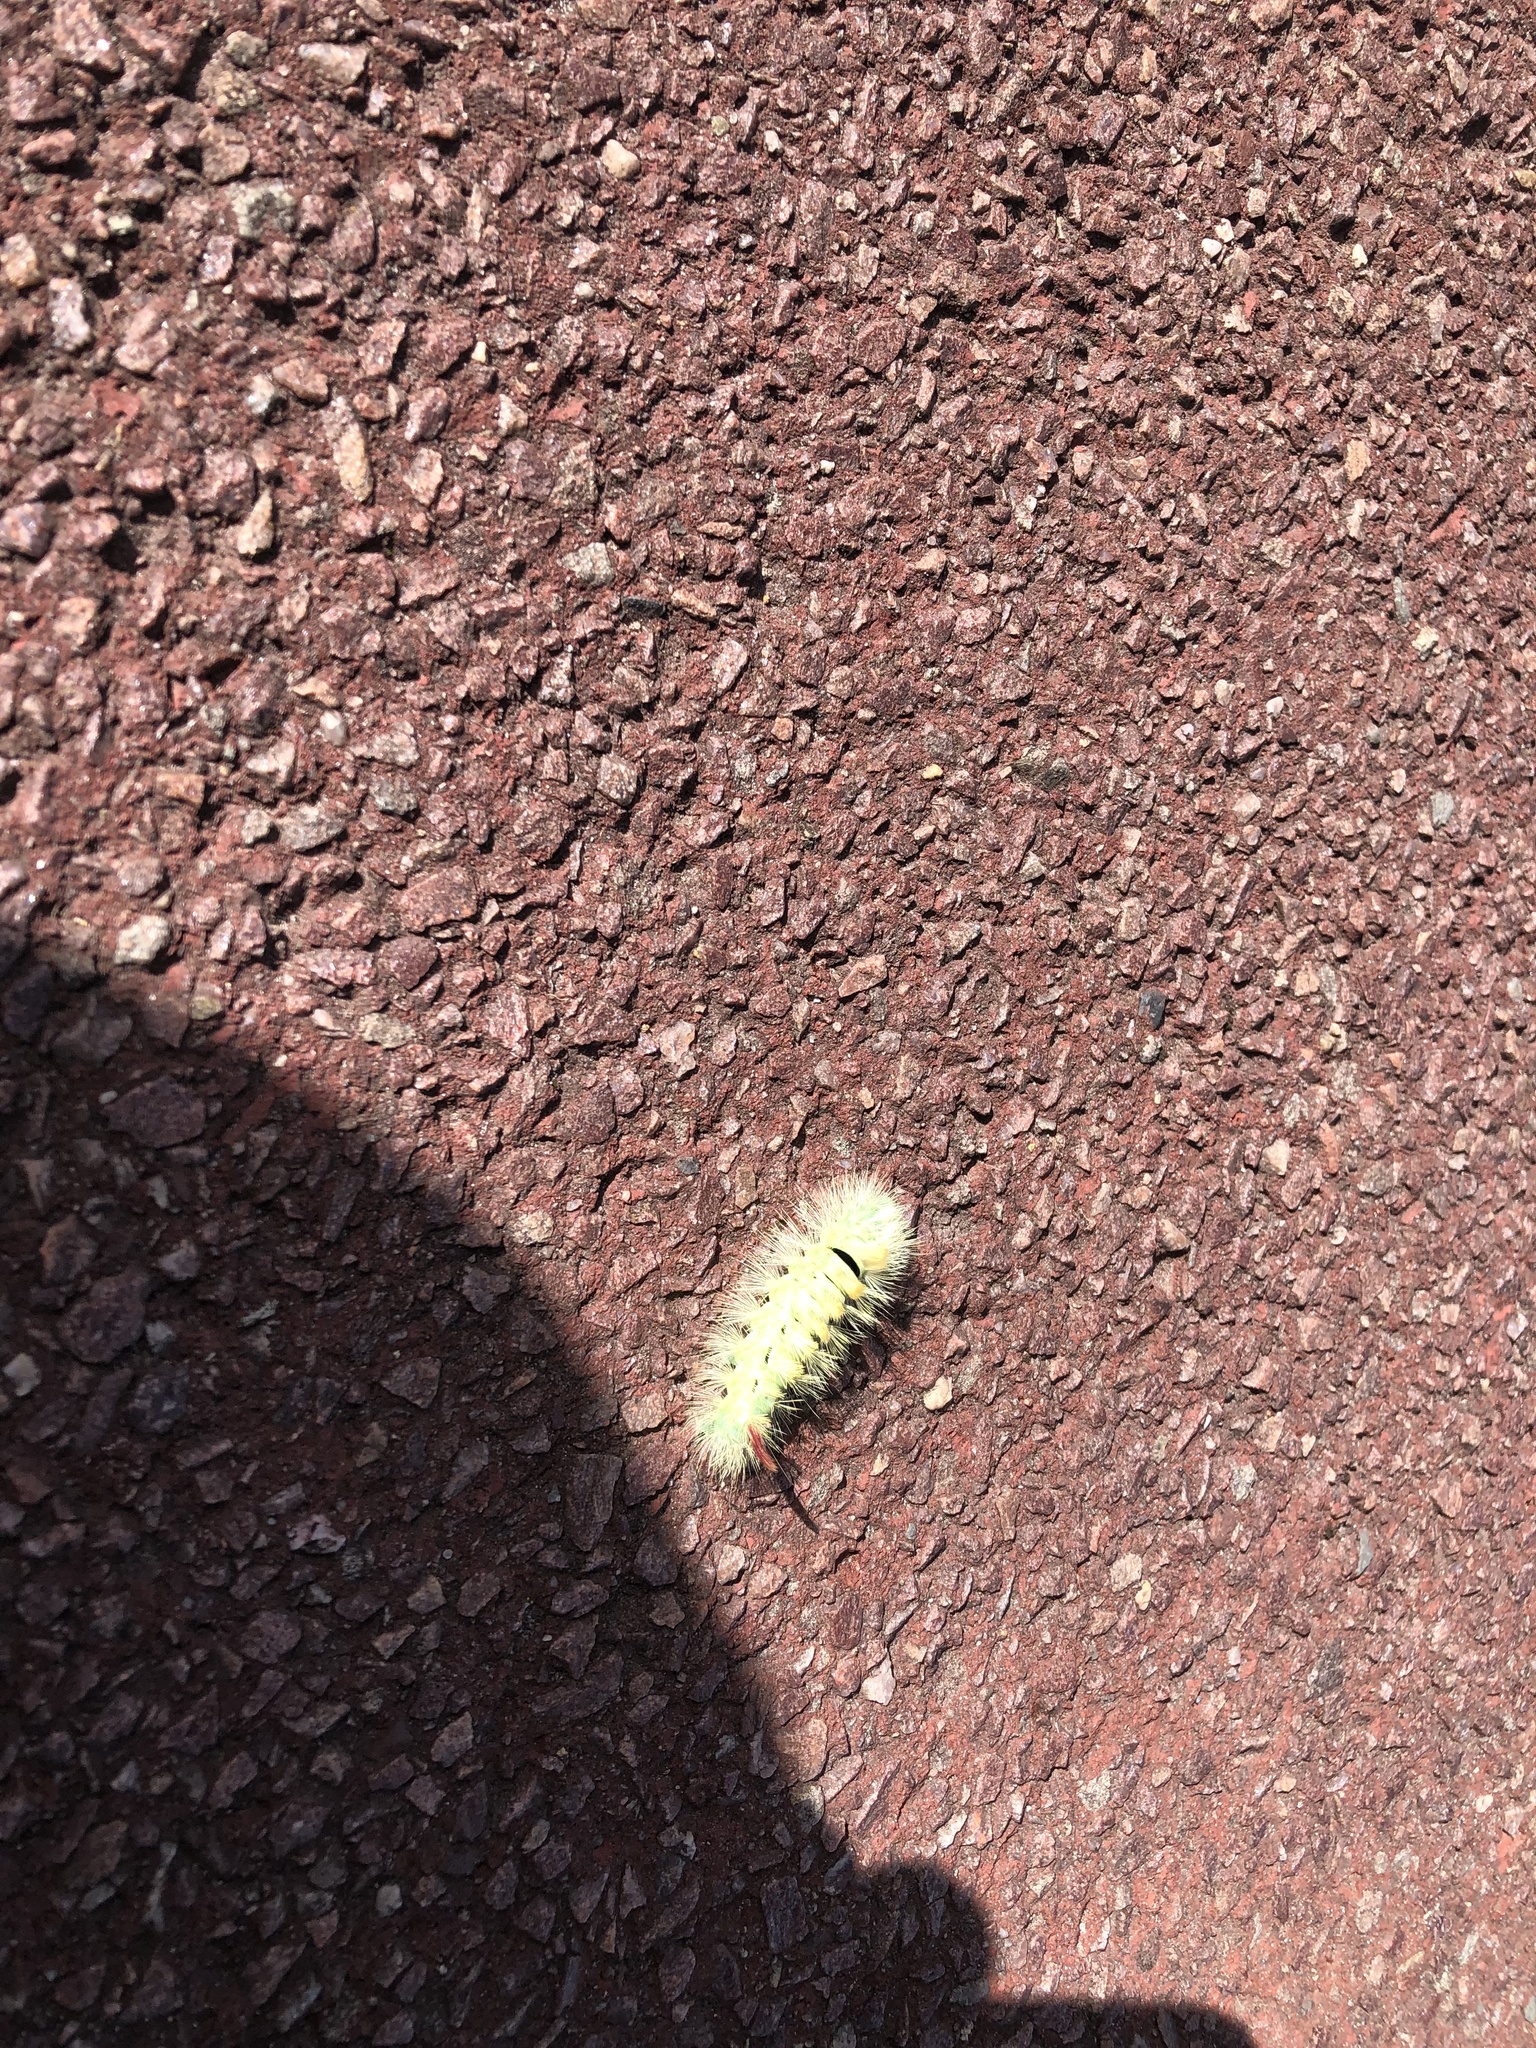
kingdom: Animalia
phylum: Arthropoda
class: Insecta
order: Lepidoptera
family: Erebidae
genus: Calliteara
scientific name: Calliteara pudibunda
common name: Pale tussock
